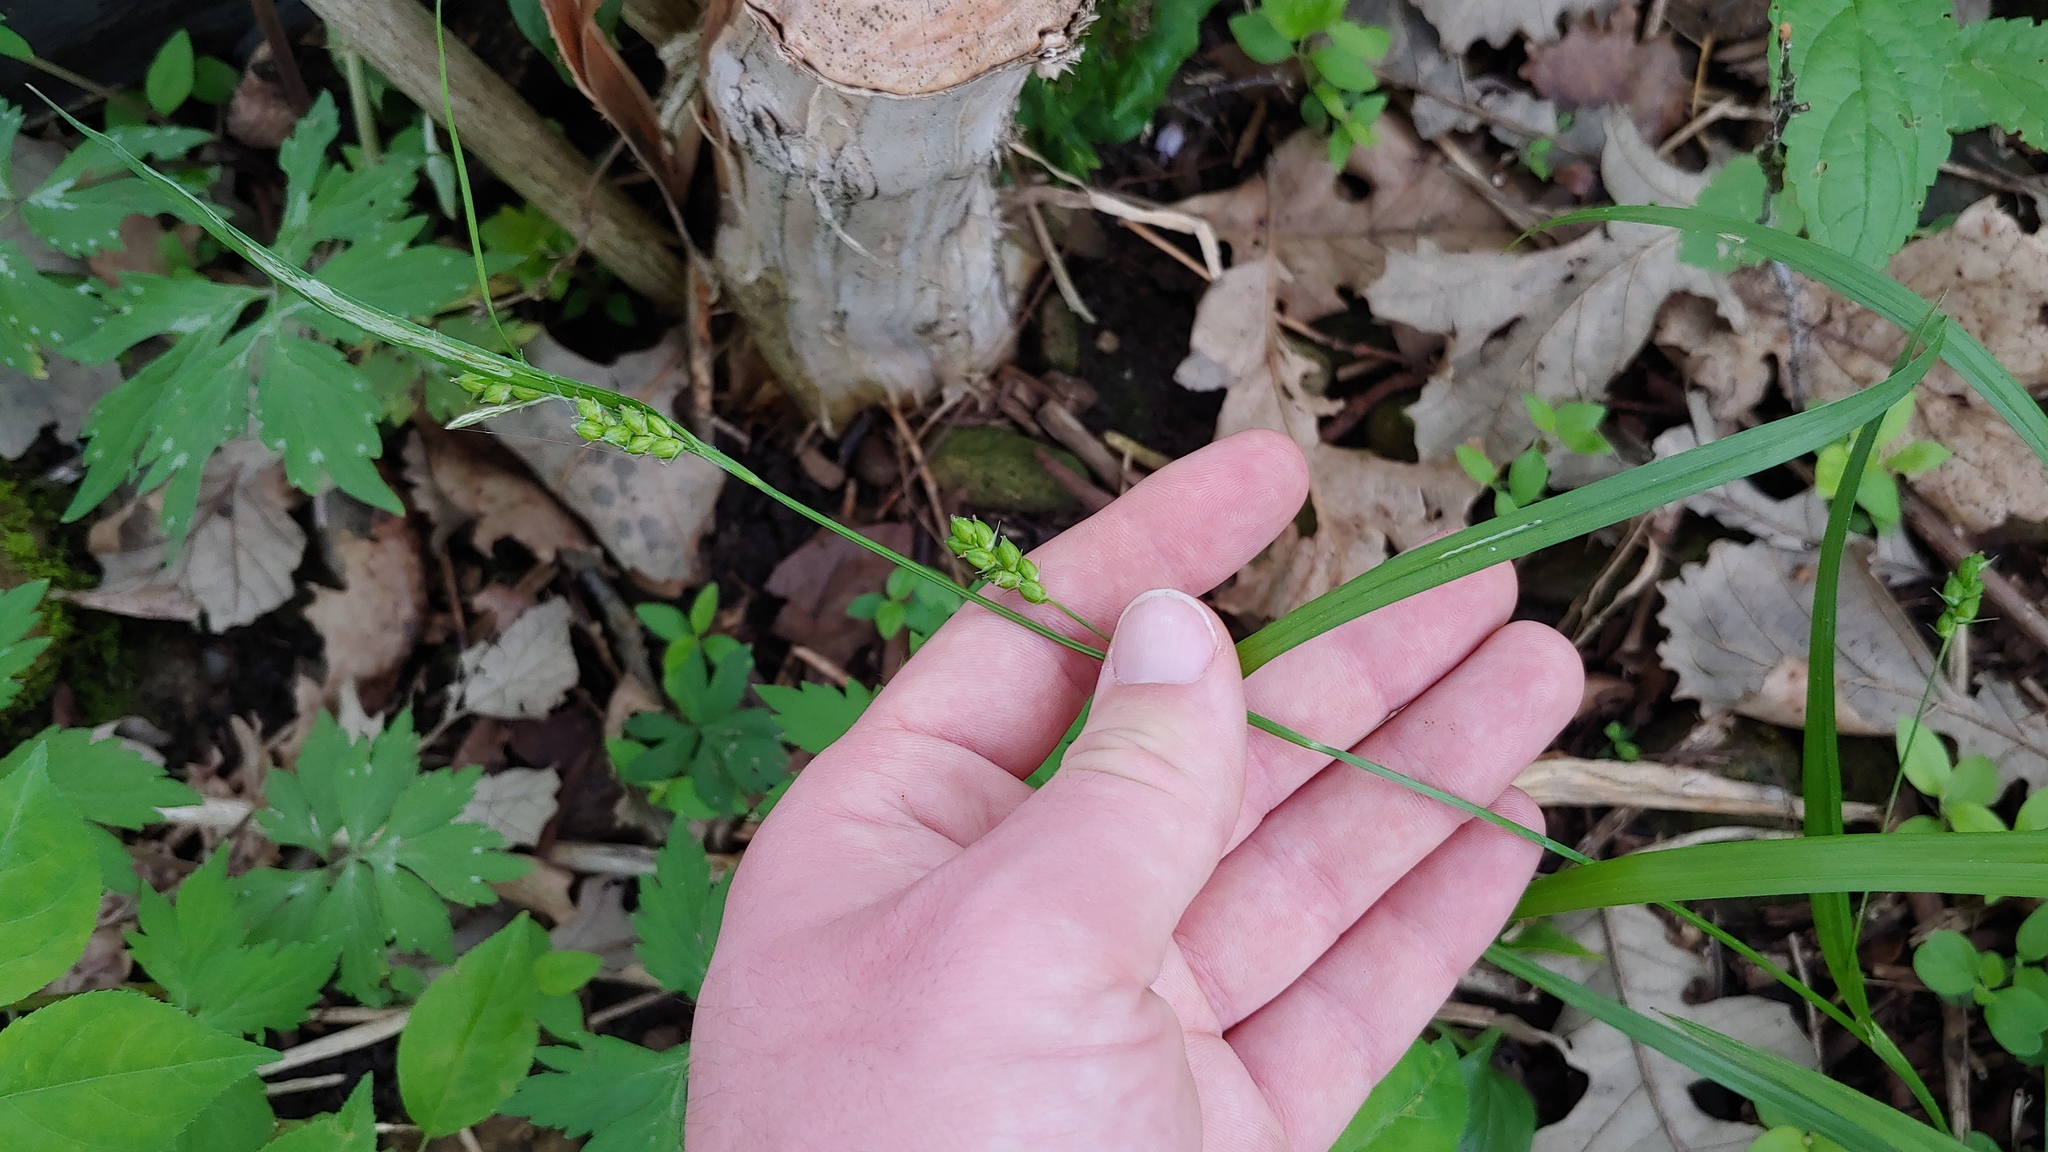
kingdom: Plantae
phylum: Tracheophyta
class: Liliopsida
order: Poales
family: Cyperaceae
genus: Carex
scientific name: Carex grisea
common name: Eastern narrow-leaved sedge
